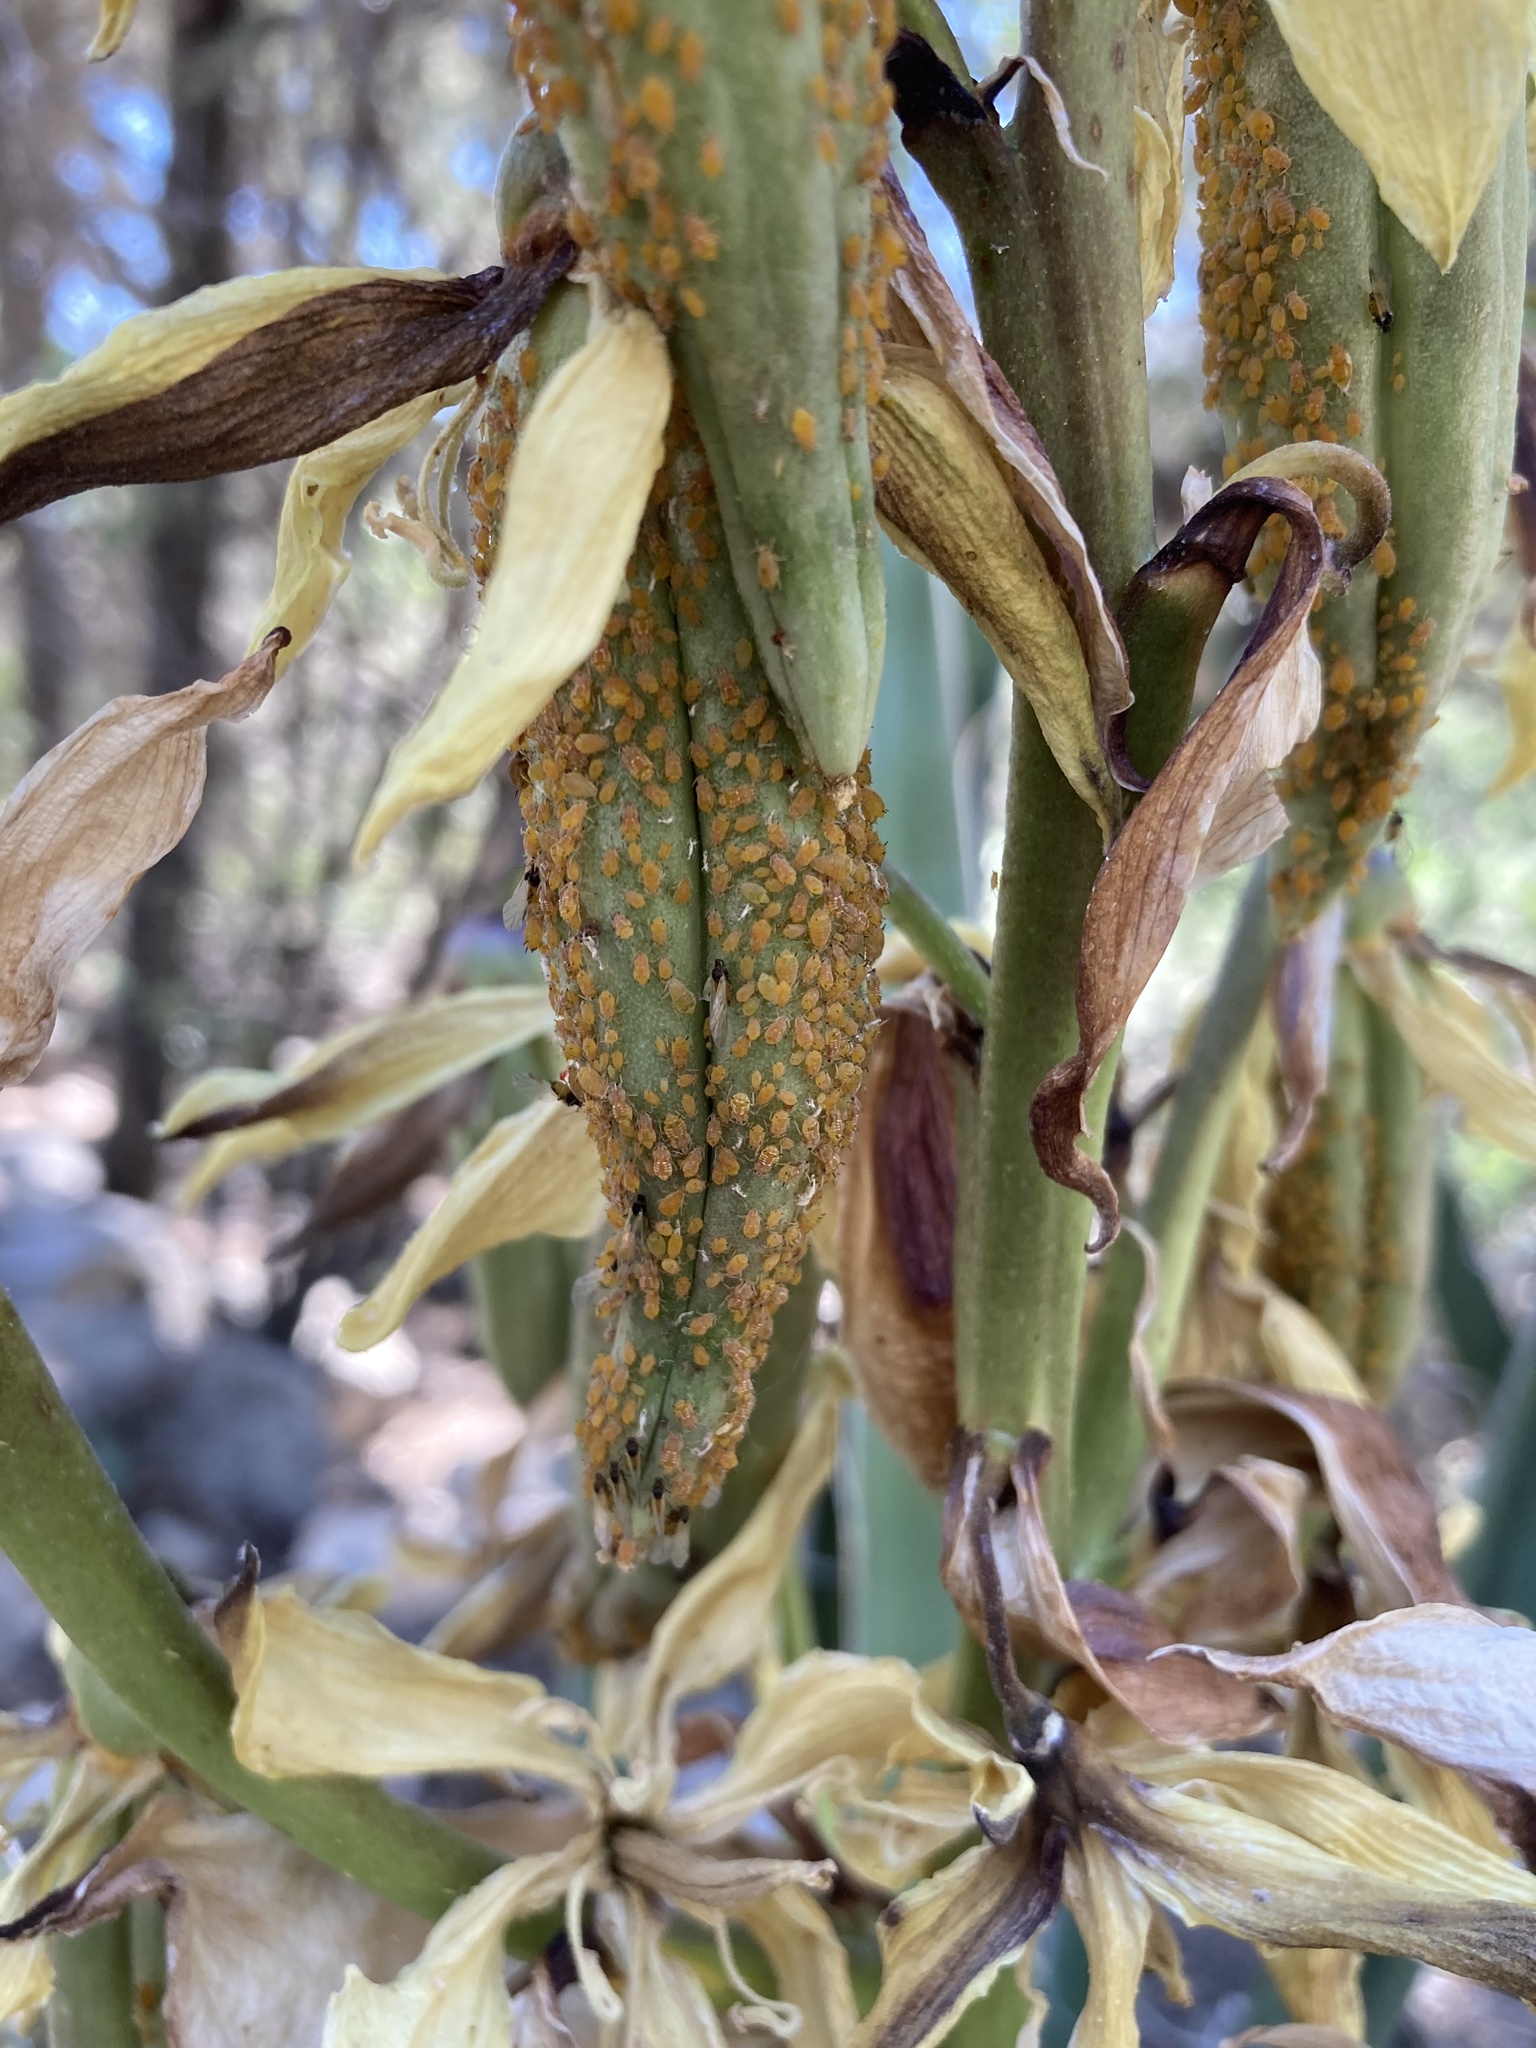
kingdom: Animalia
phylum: Arthropoda
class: Insecta
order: Hemiptera
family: Aphididae
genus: Aphis
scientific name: Aphis asclepiadis
